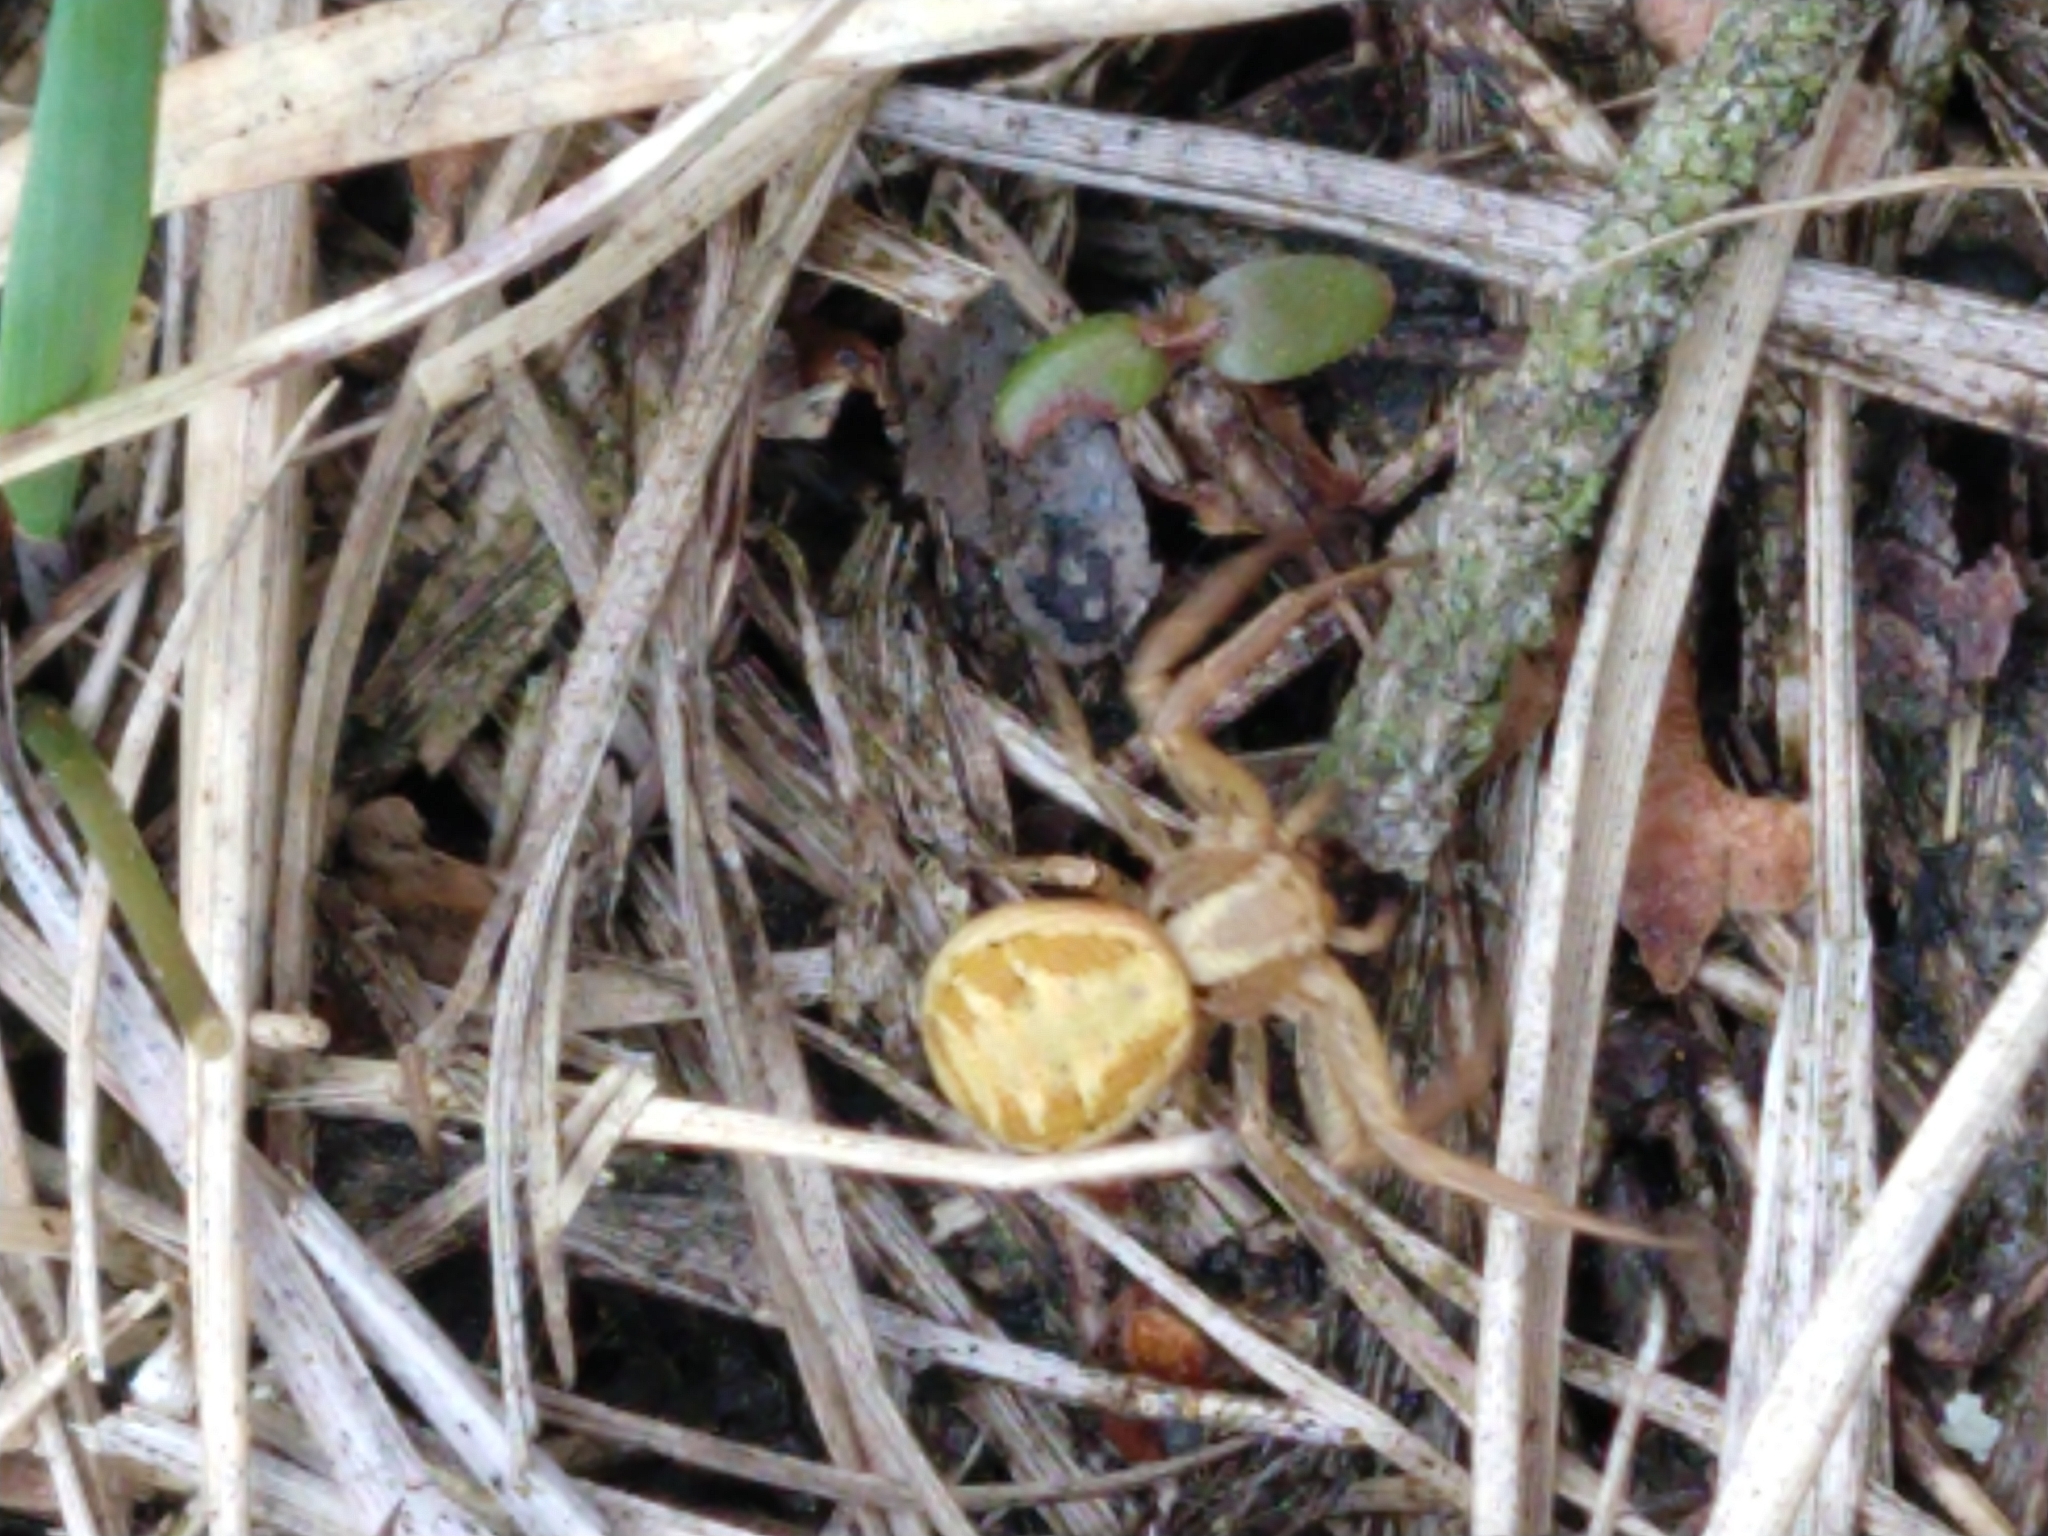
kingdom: Animalia
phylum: Arthropoda
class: Arachnida
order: Araneae
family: Thomisidae
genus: Xysticus
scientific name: Xysticus
